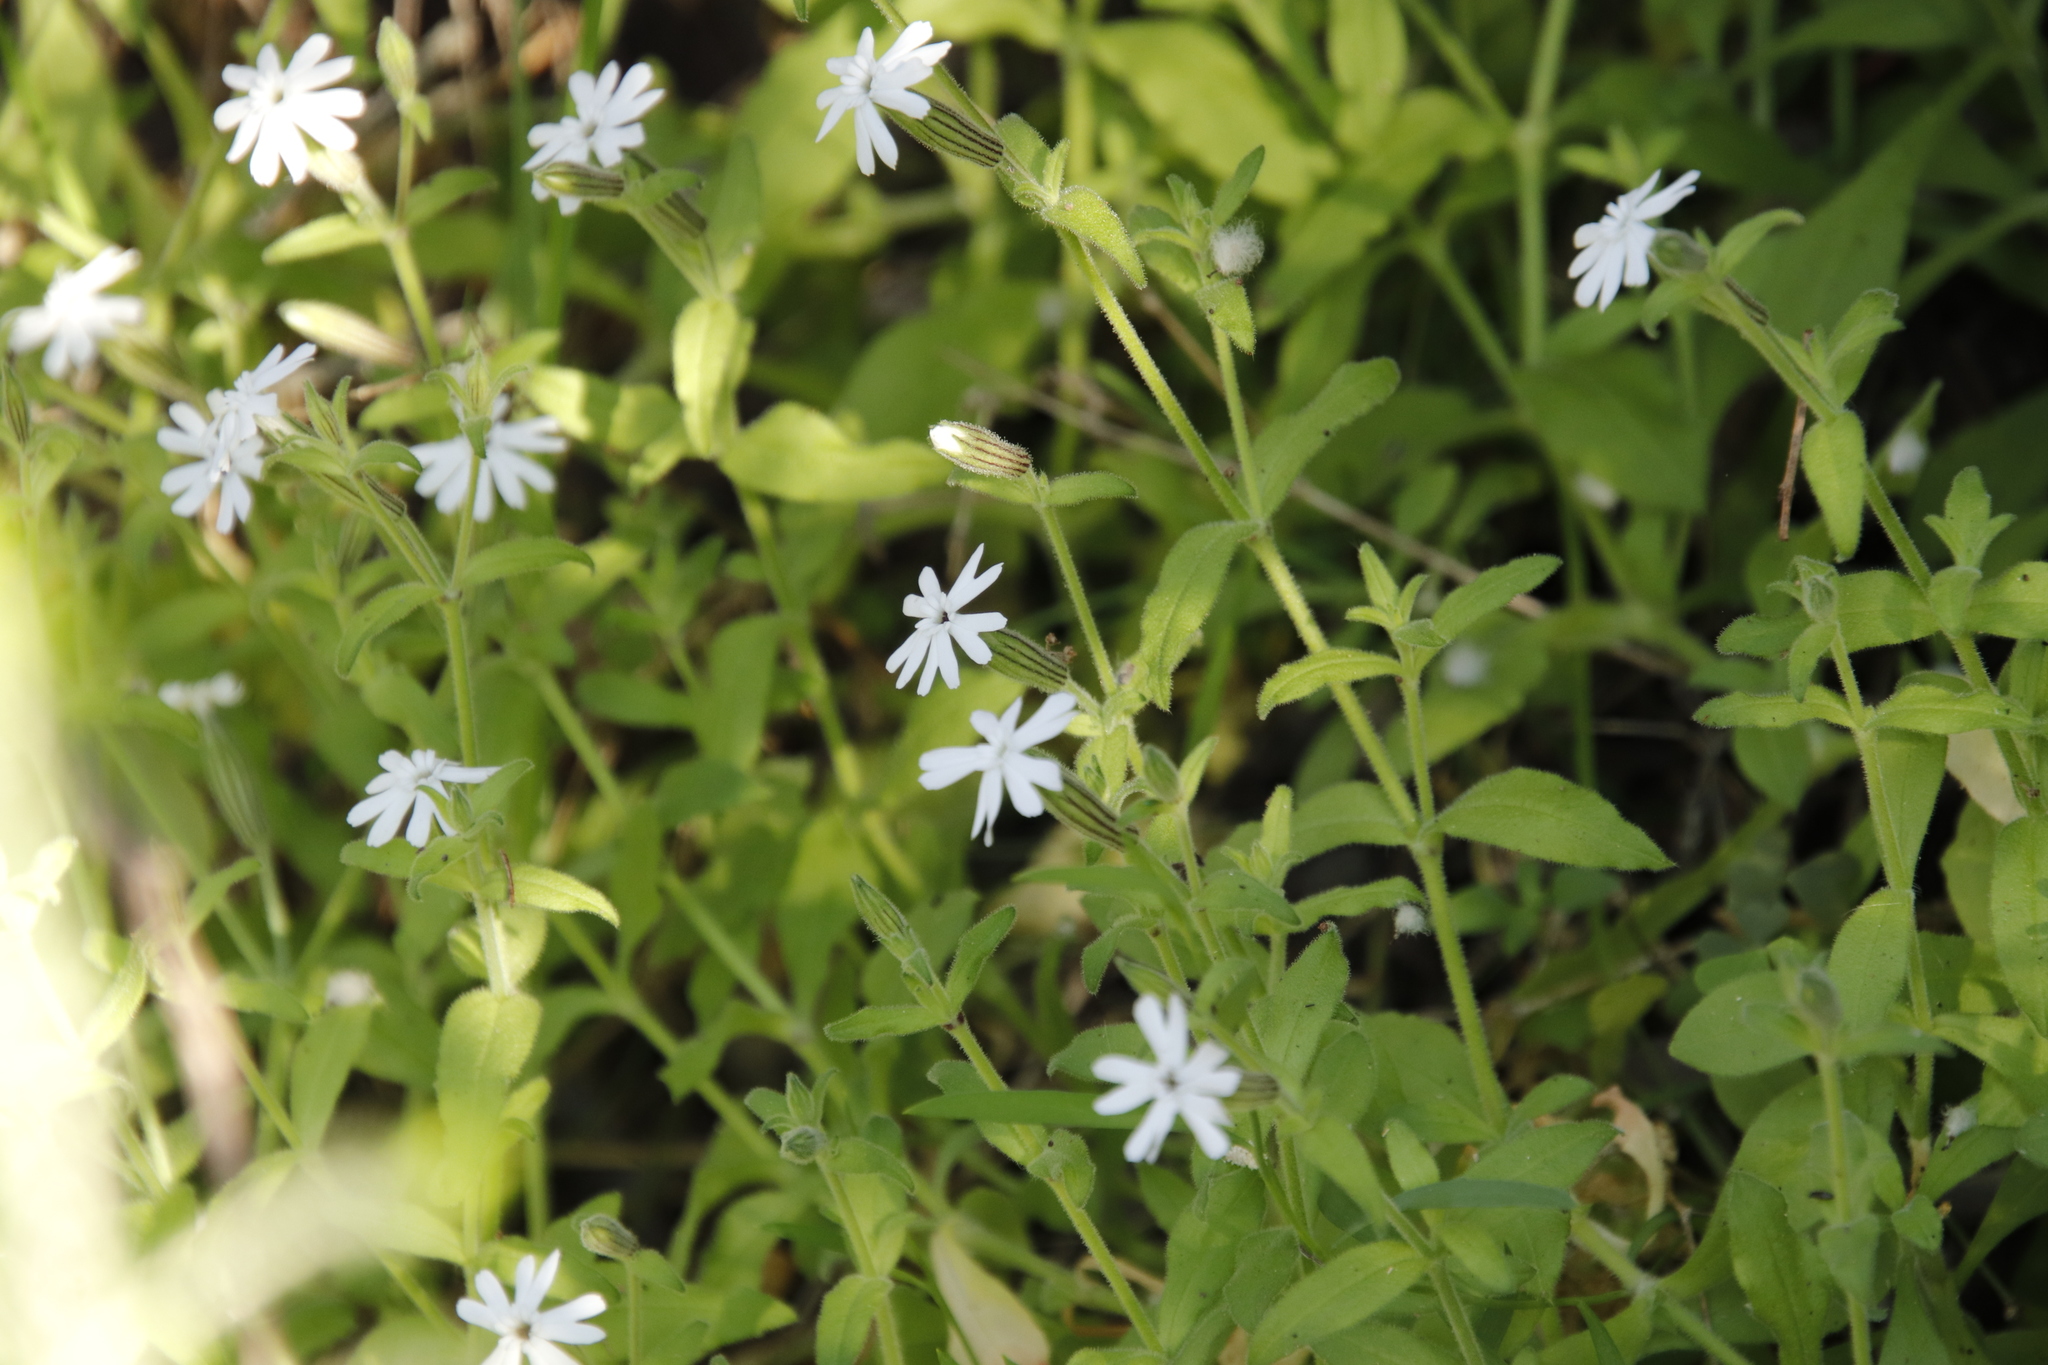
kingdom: Plantae
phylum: Tracheophyta
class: Magnoliopsida
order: Caryophyllales
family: Caryophyllaceae
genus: Silene
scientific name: Silene undulata
